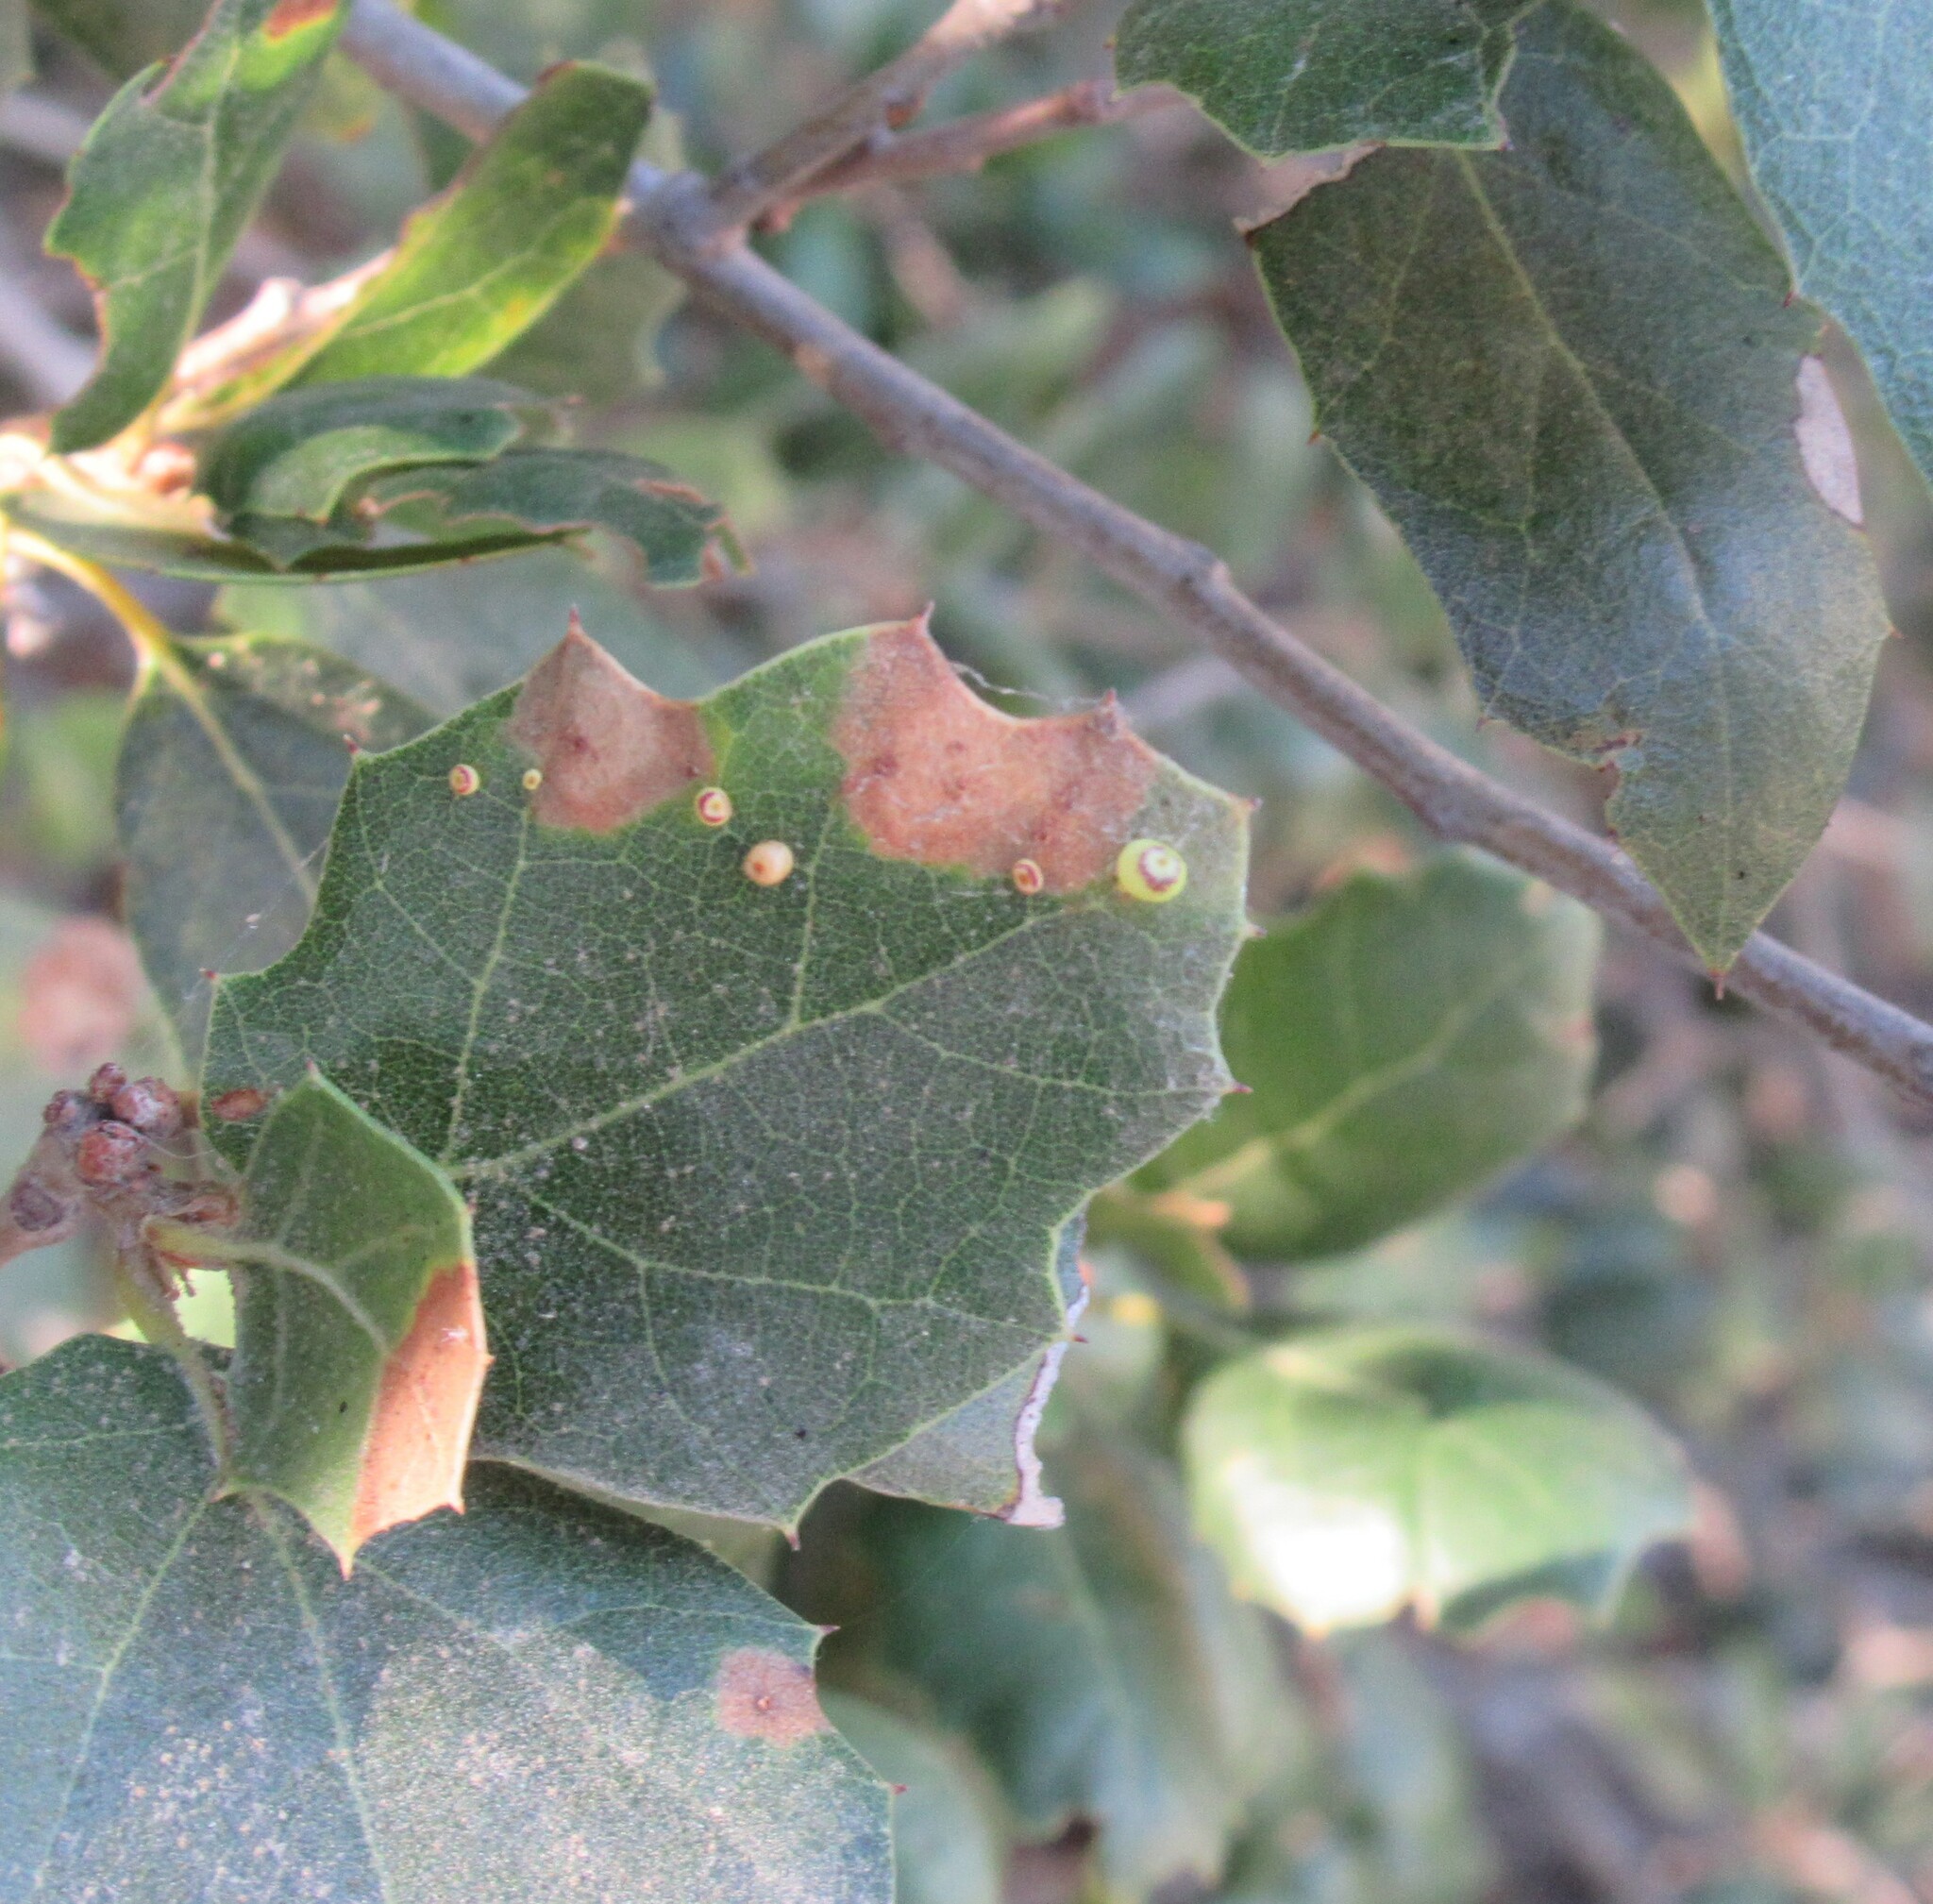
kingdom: Animalia
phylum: Arthropoda
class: Insecta
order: Hymenoptera
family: Cynipidae
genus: Dryocosmus
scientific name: Dryocosmus
